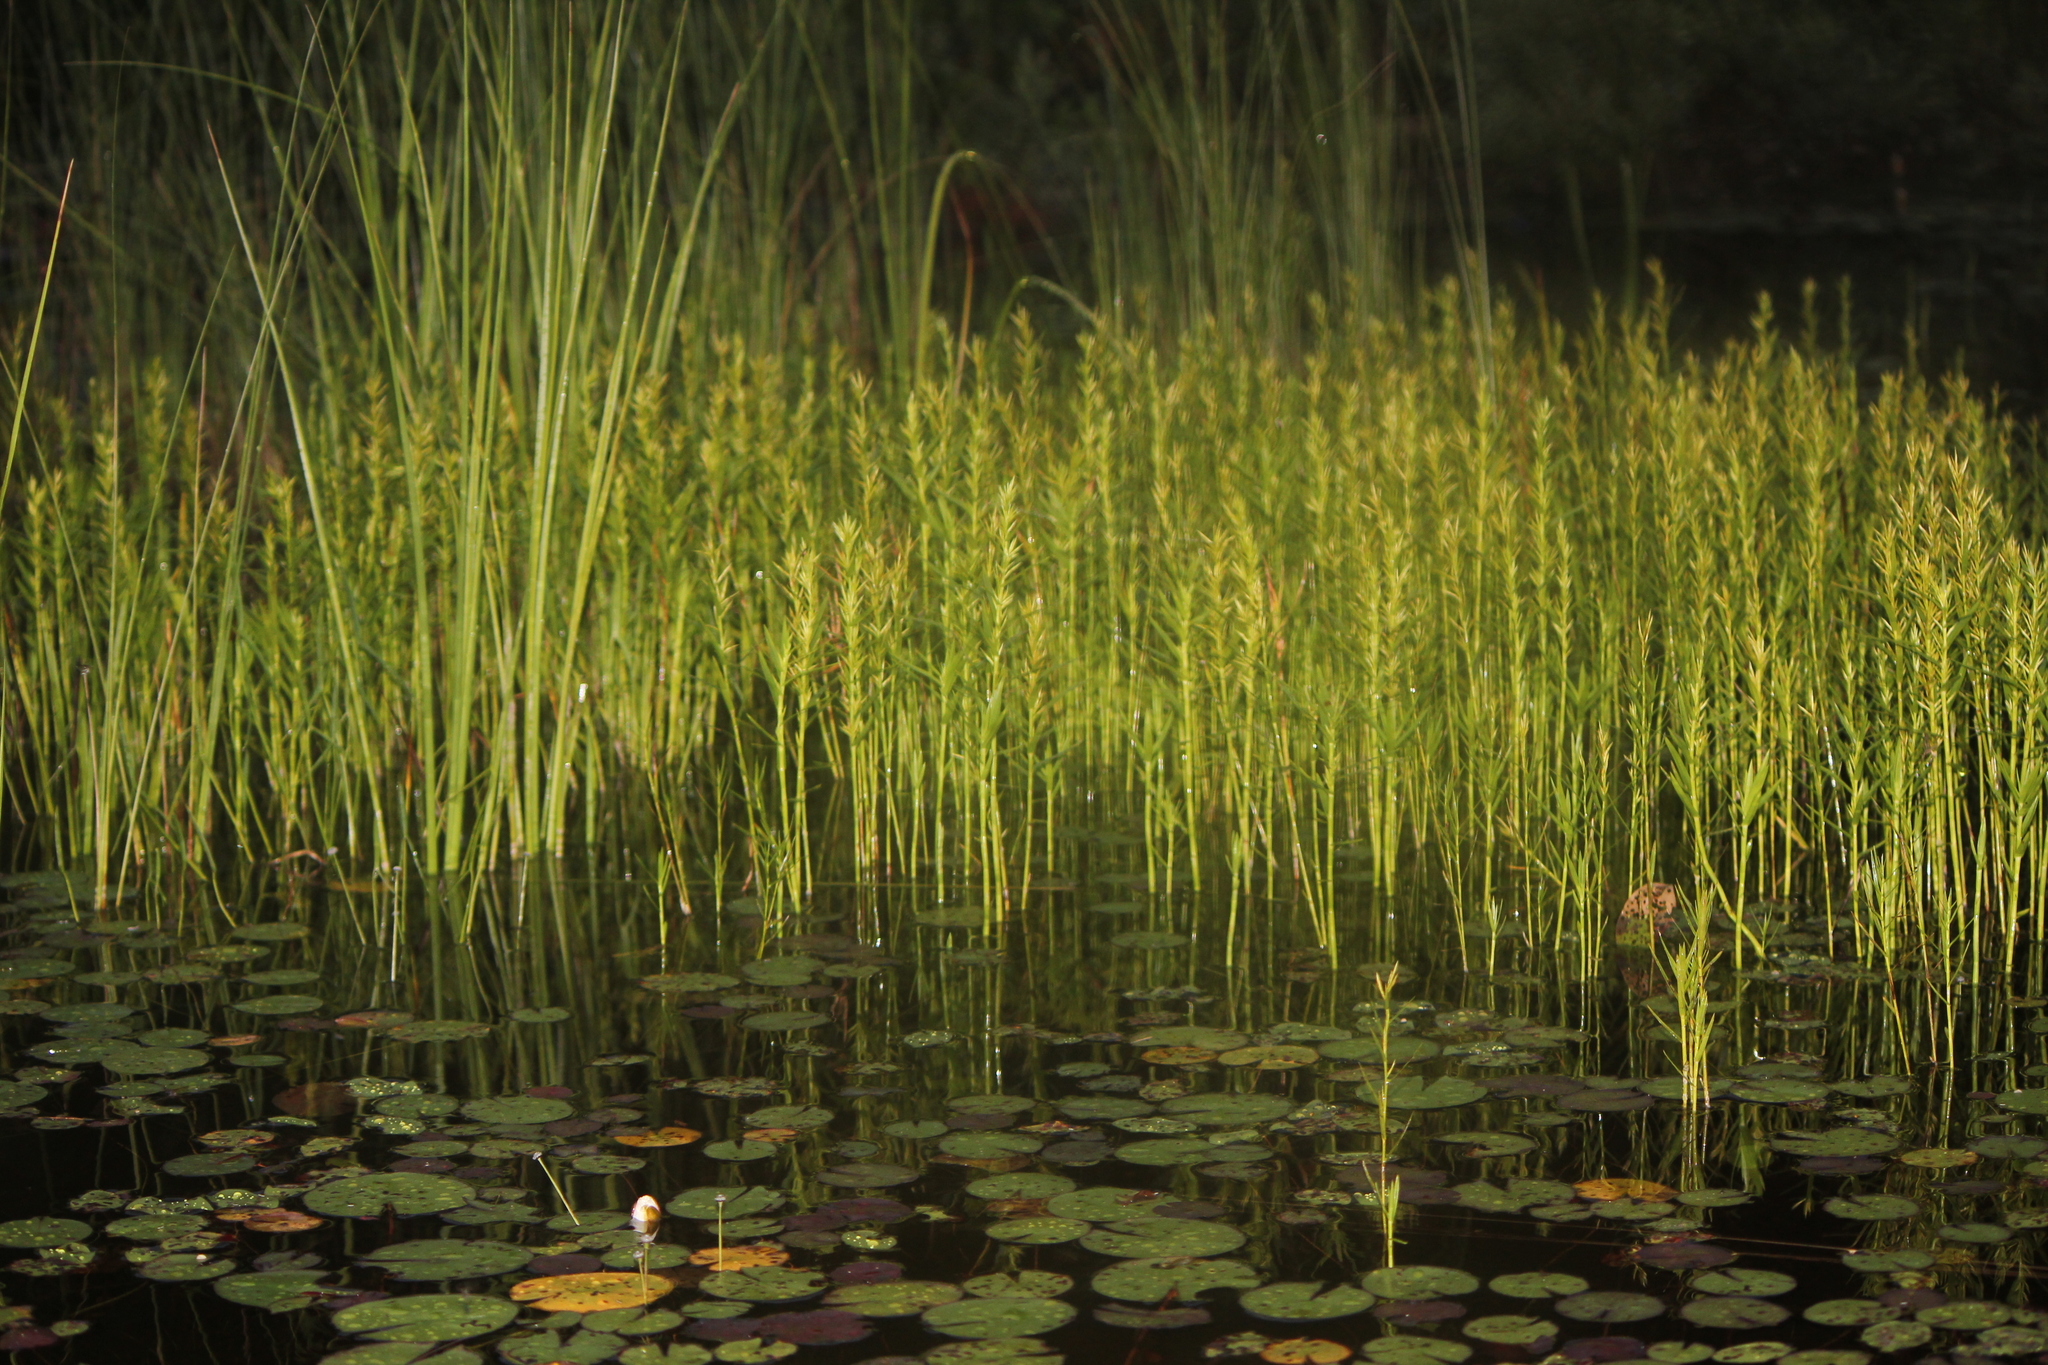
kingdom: Plantae
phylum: Tracheophyta
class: Liliopsida
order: Poales
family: Cyperaceae
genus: Dulichium
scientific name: Dulichium arundinaceum
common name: Three-way sedge
